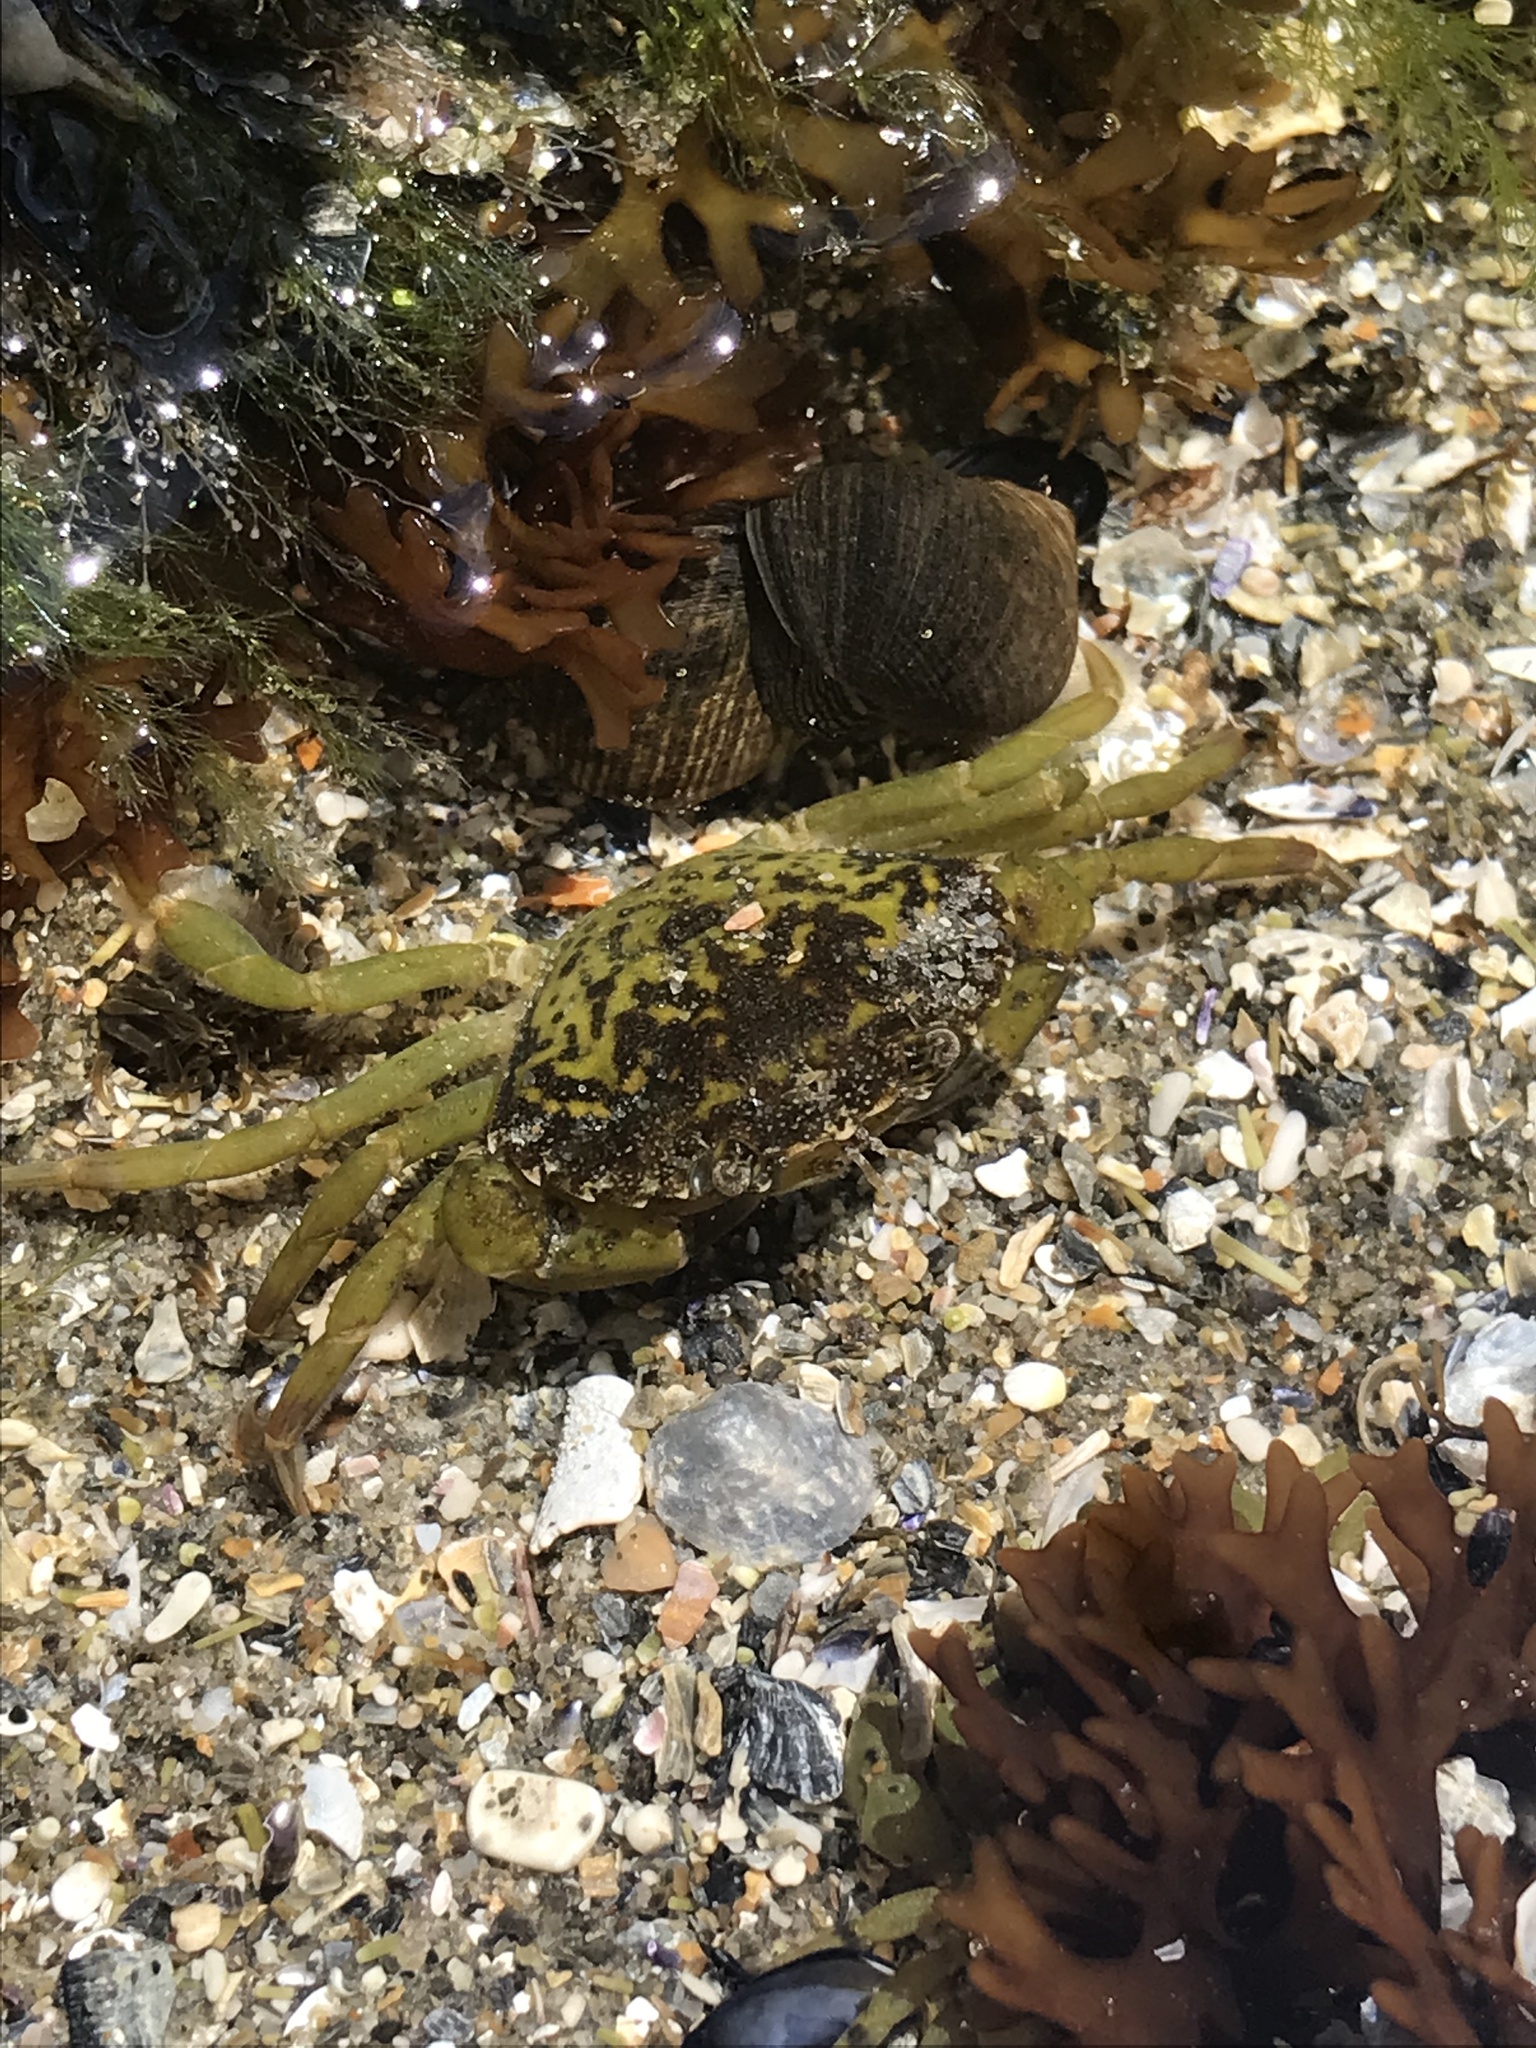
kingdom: Animalia
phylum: Arthropoda
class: Malacostraca
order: Decapoda
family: Carcinidae
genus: Carcinus
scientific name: Carcinus maenas
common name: European green crab
